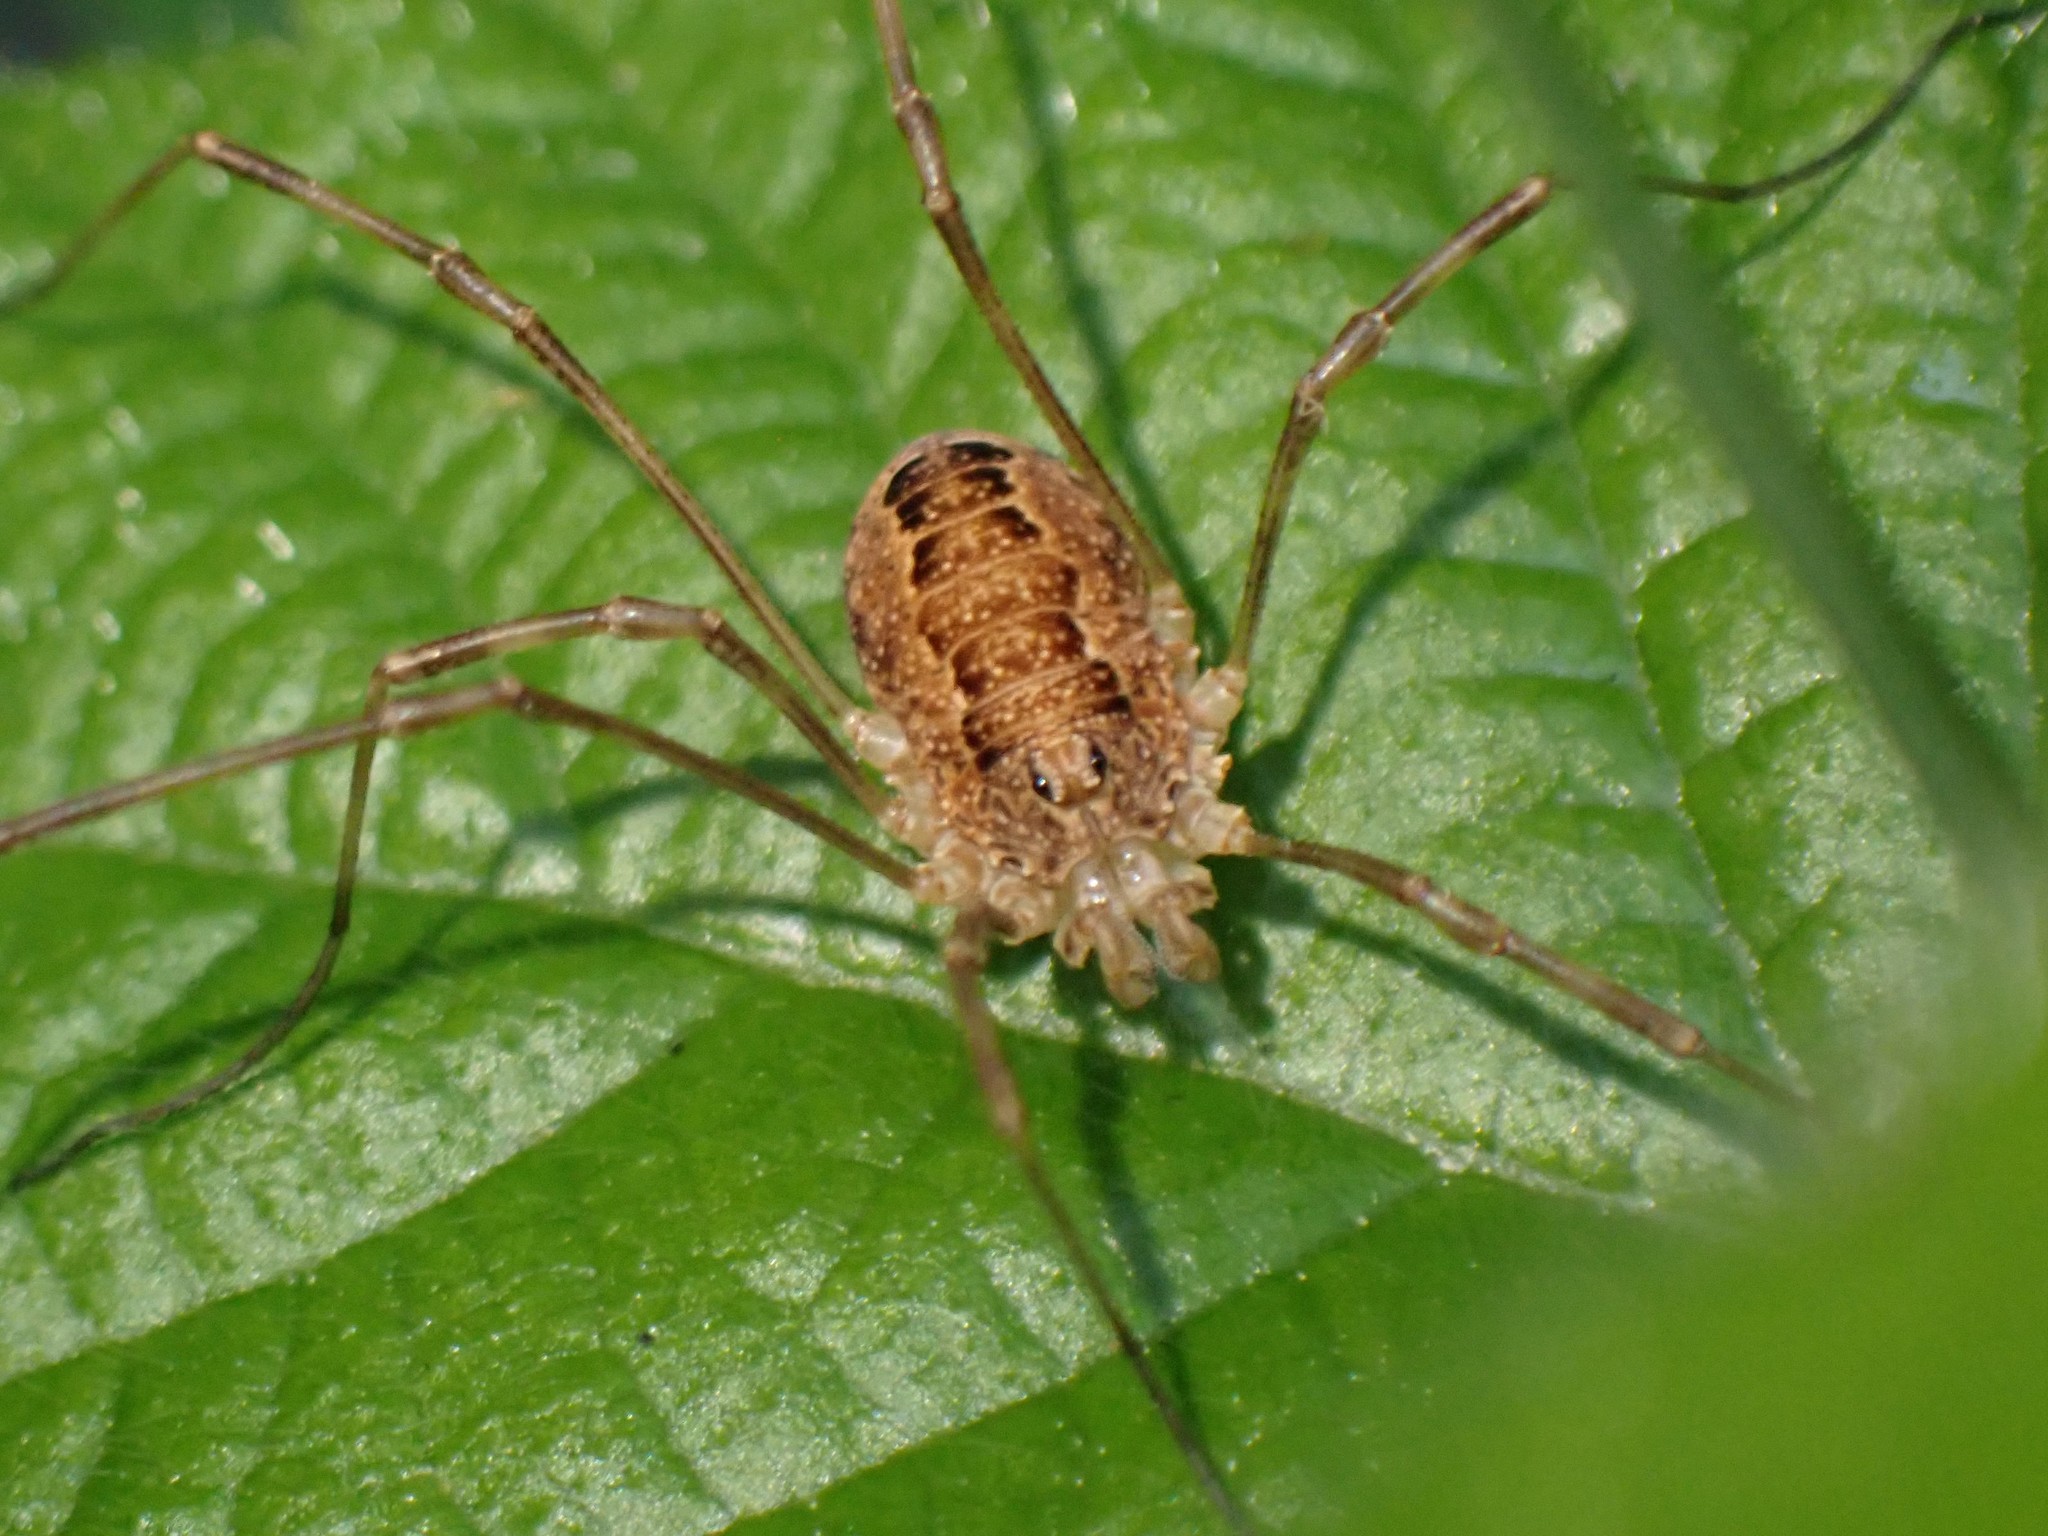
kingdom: Animalia
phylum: Arthropoda
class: Arachnida
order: Opiliones
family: Phalangiidae
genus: Rilaena
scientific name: Rilaena triangularis
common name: Spring harvestman
